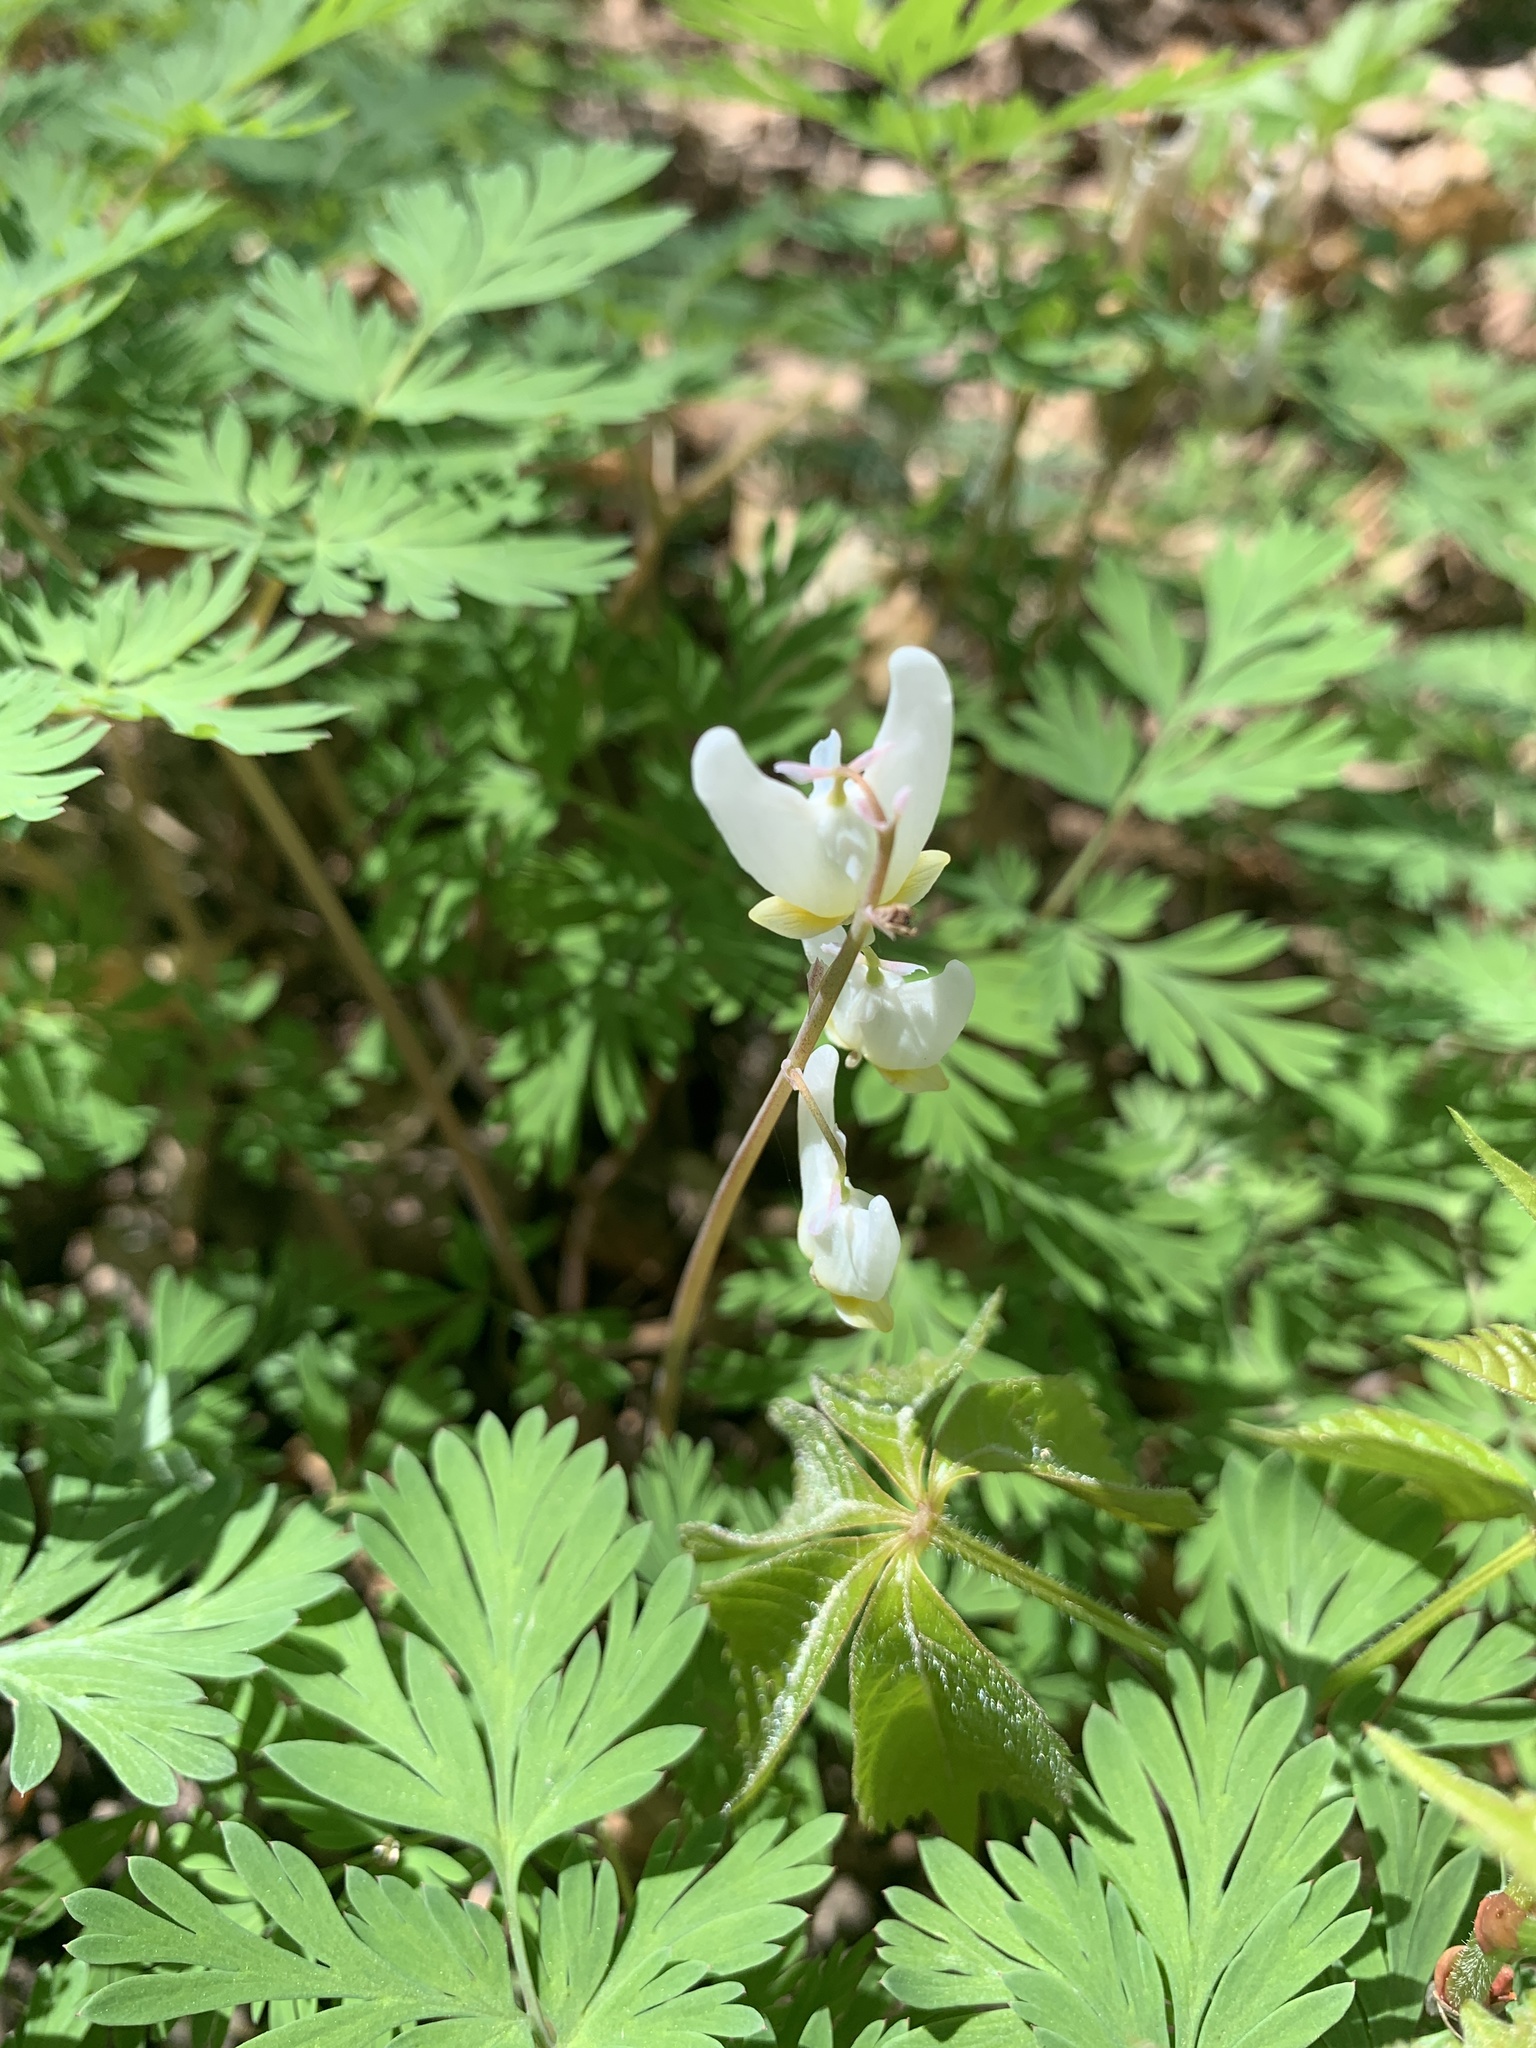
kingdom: Plantae
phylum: Tracheophyta
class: Magnoliopsida
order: Ranunculales
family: Papaveraceae
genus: Dicentra
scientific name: Dicentra cucullaria
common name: Dutchman's breeches
